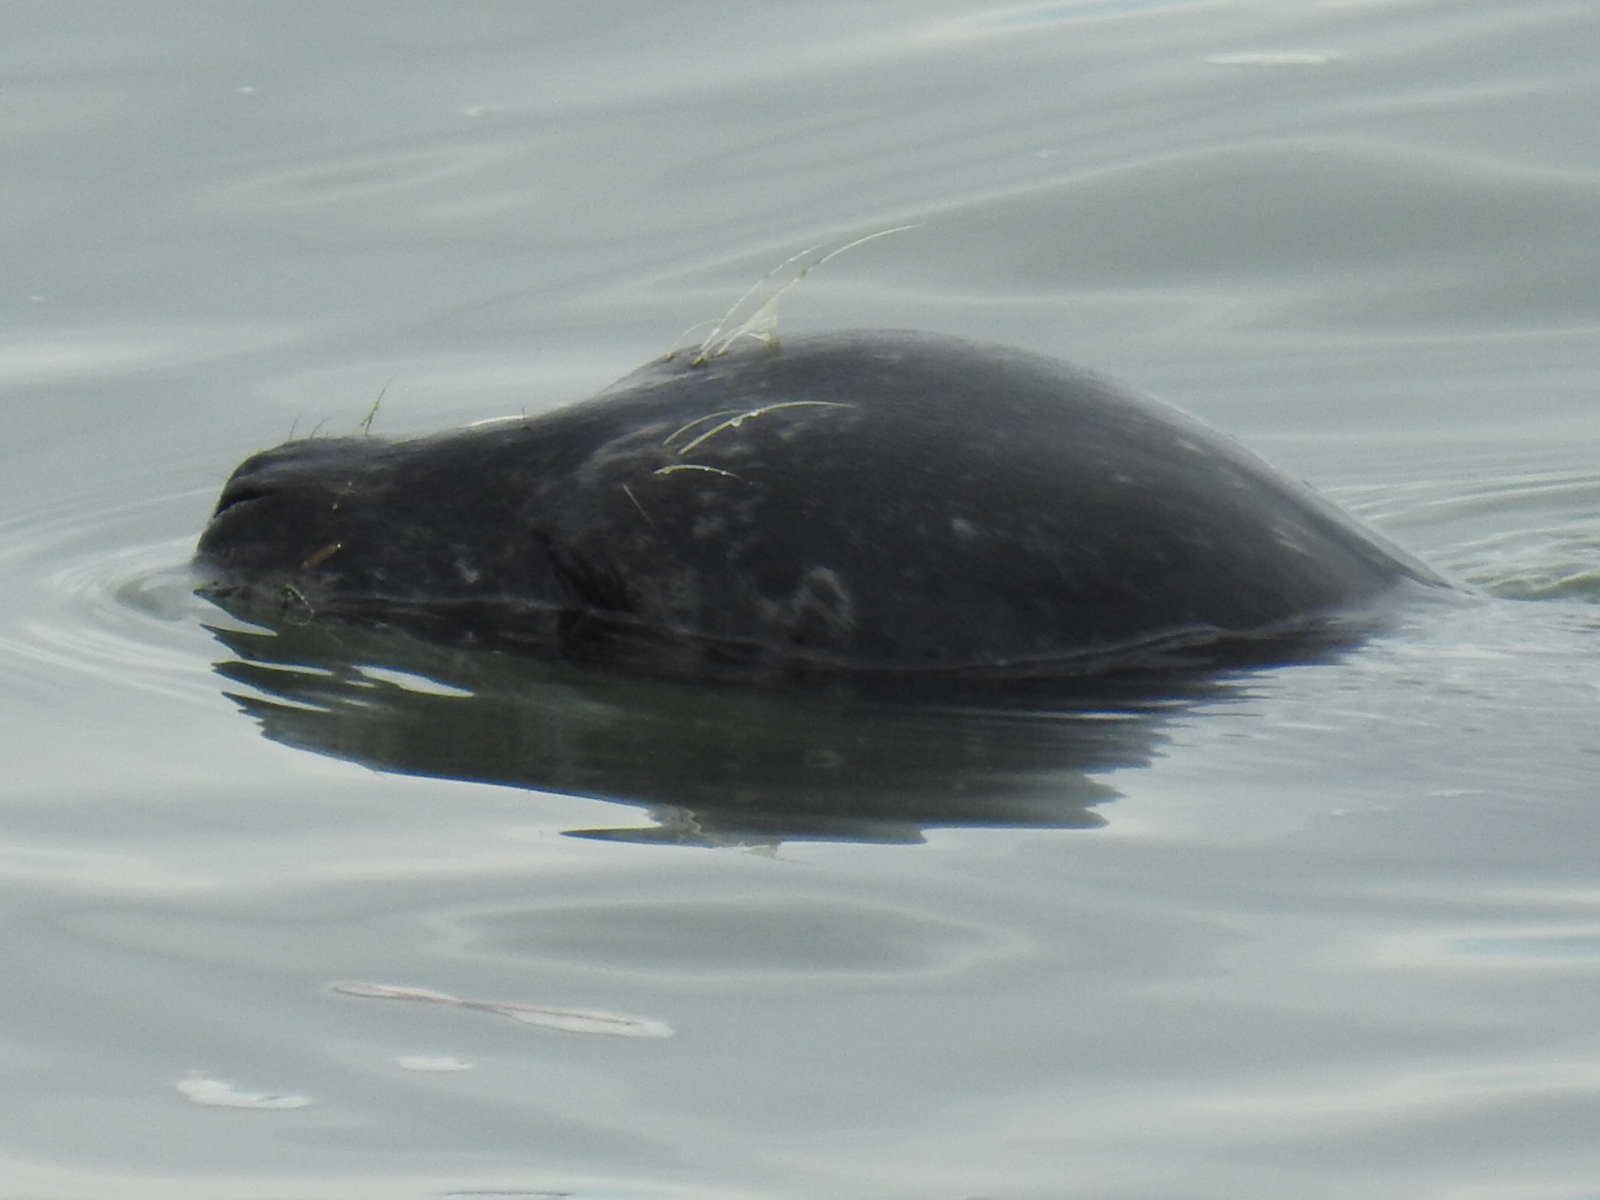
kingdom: Animalia
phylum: Chordata
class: Mammalia
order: Carnivora
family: Phocidae
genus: Phoca
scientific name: Phoca vitulina
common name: Harbor seal
